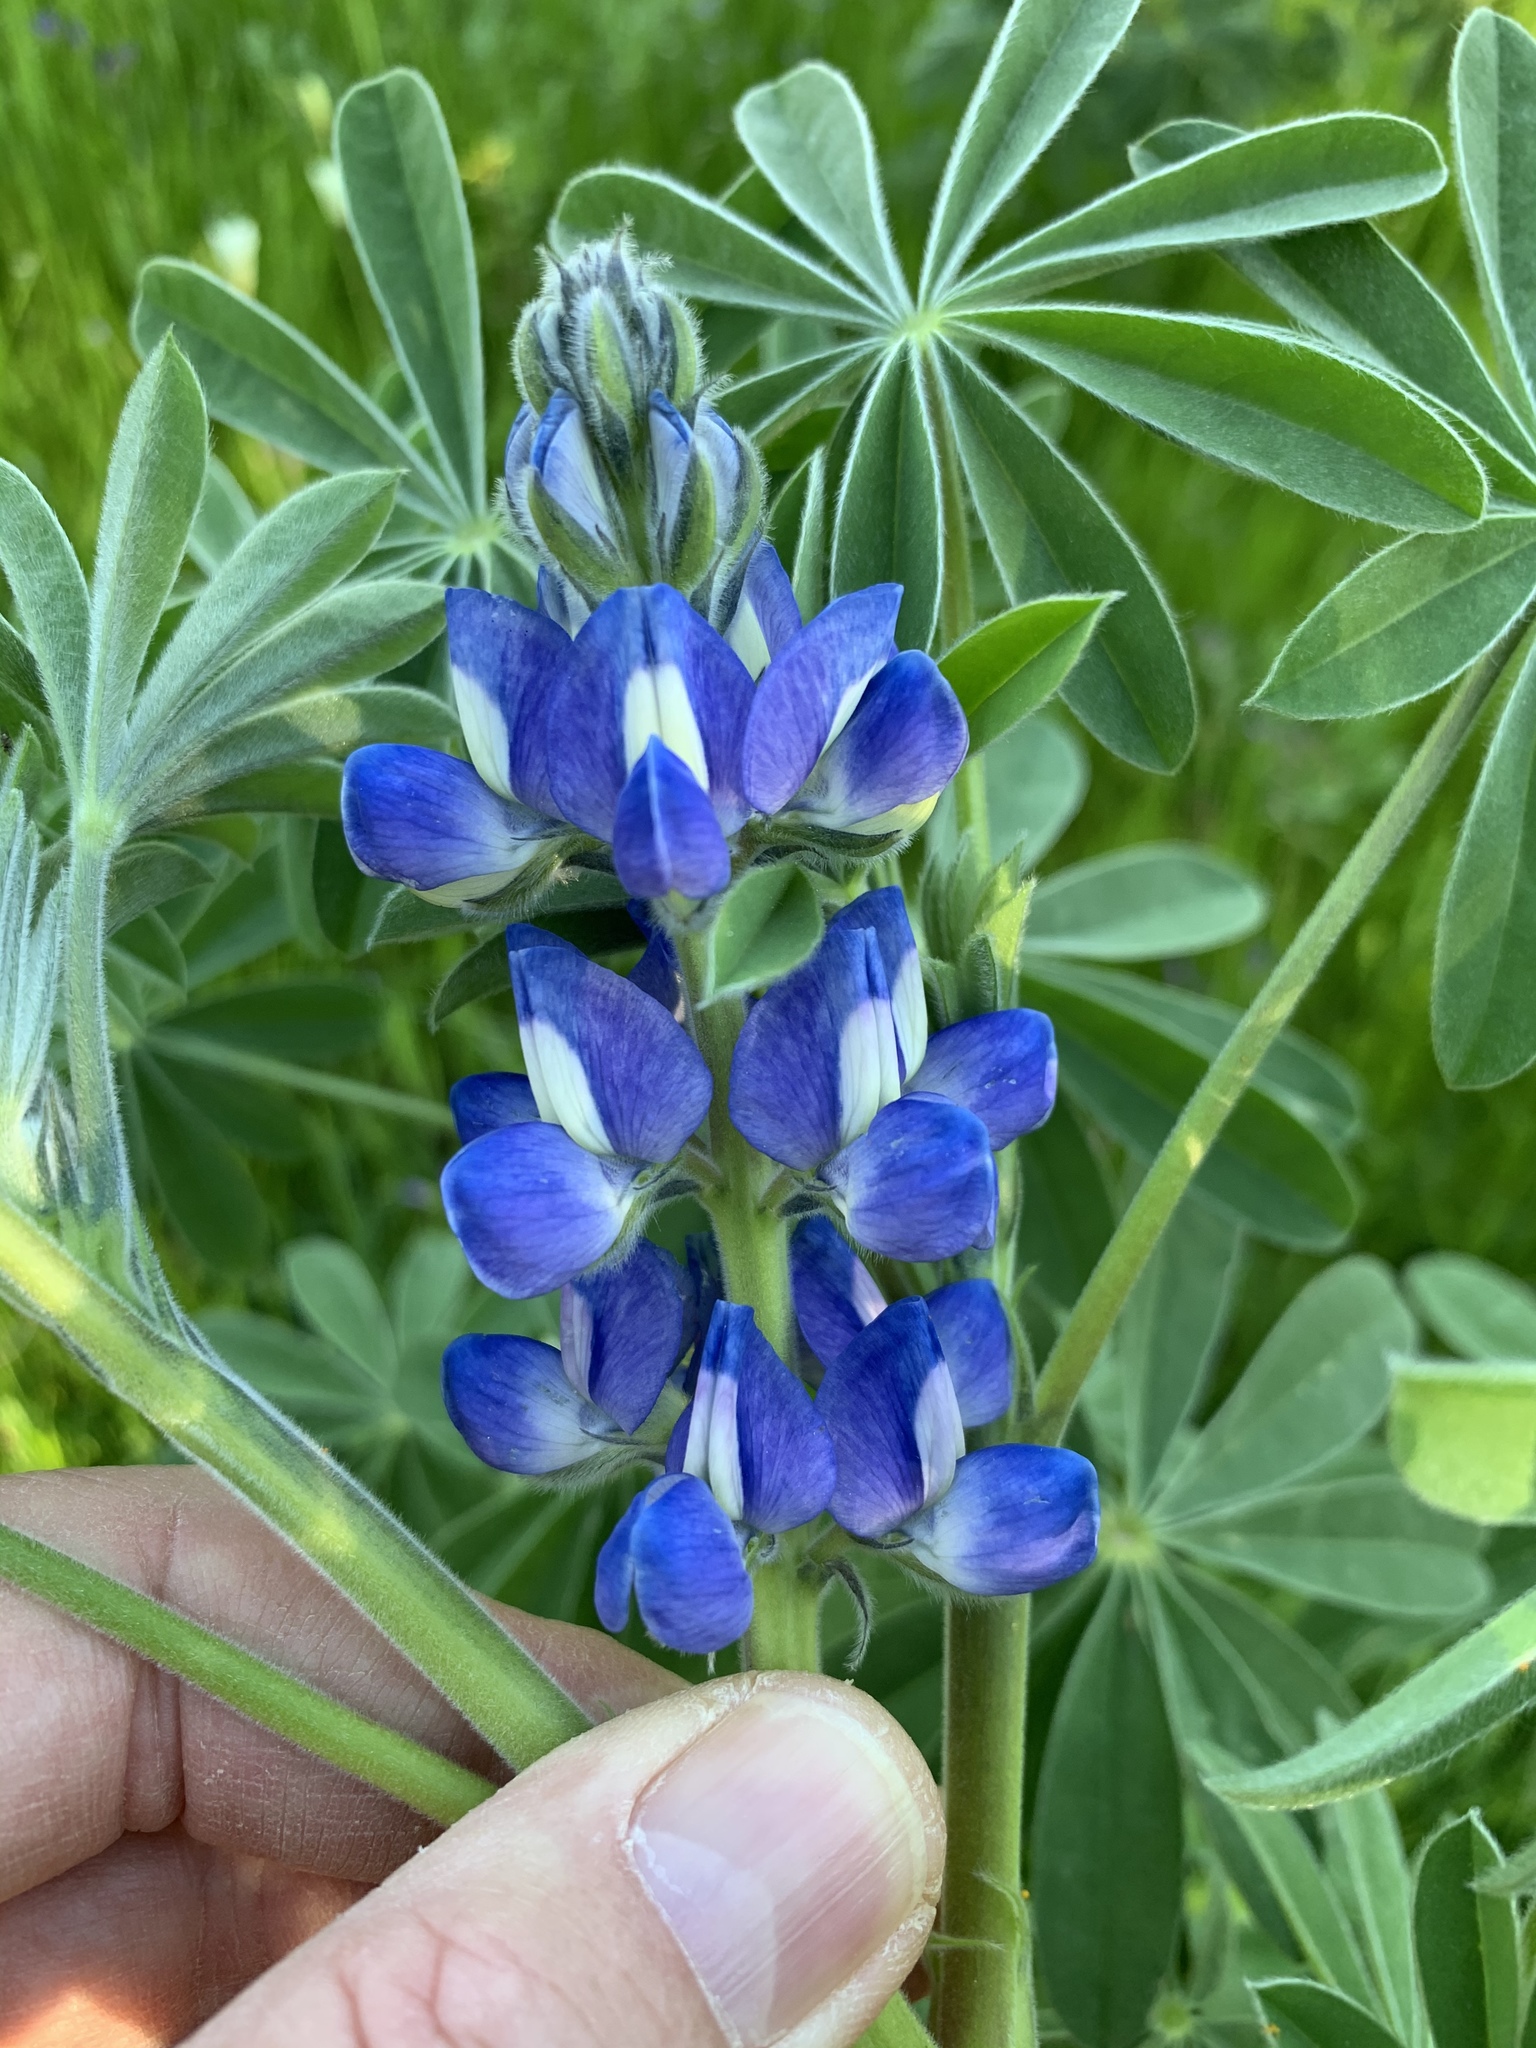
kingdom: Plantae
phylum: Tracheophyta
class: Magnoliopsida
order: Fabales
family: Fabaceae
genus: Lupinus
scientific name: Lupinus cosentinii
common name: Hairy blue lupin
